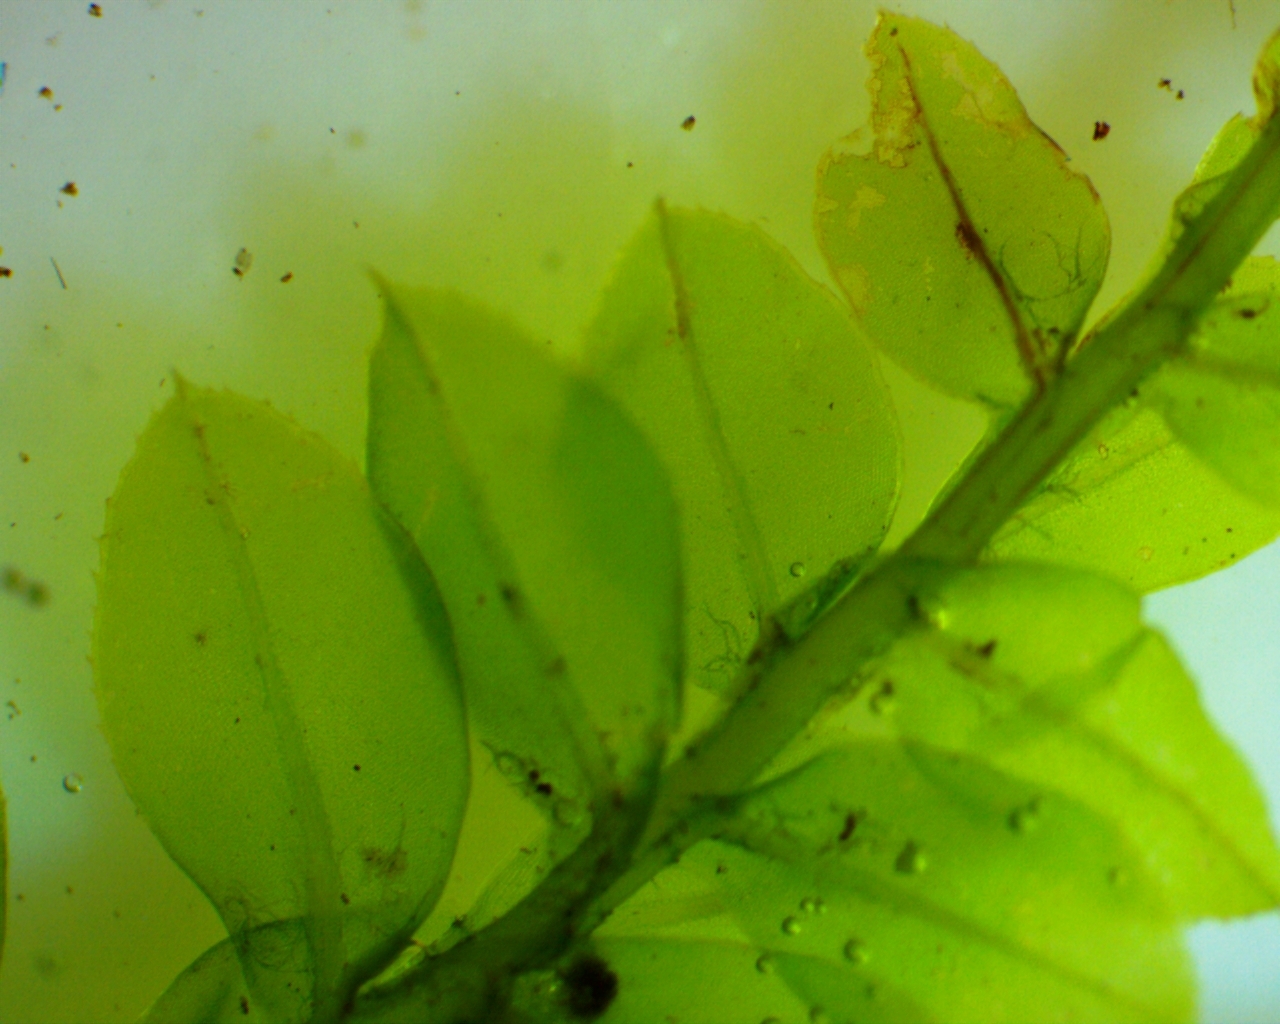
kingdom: Plantae
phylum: Bryophyta
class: Bryopsida
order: Bryales
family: Mniaceae
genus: Plagiomnium
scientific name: Plagiomnium cuspidatum
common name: Woodsy leafy moss
